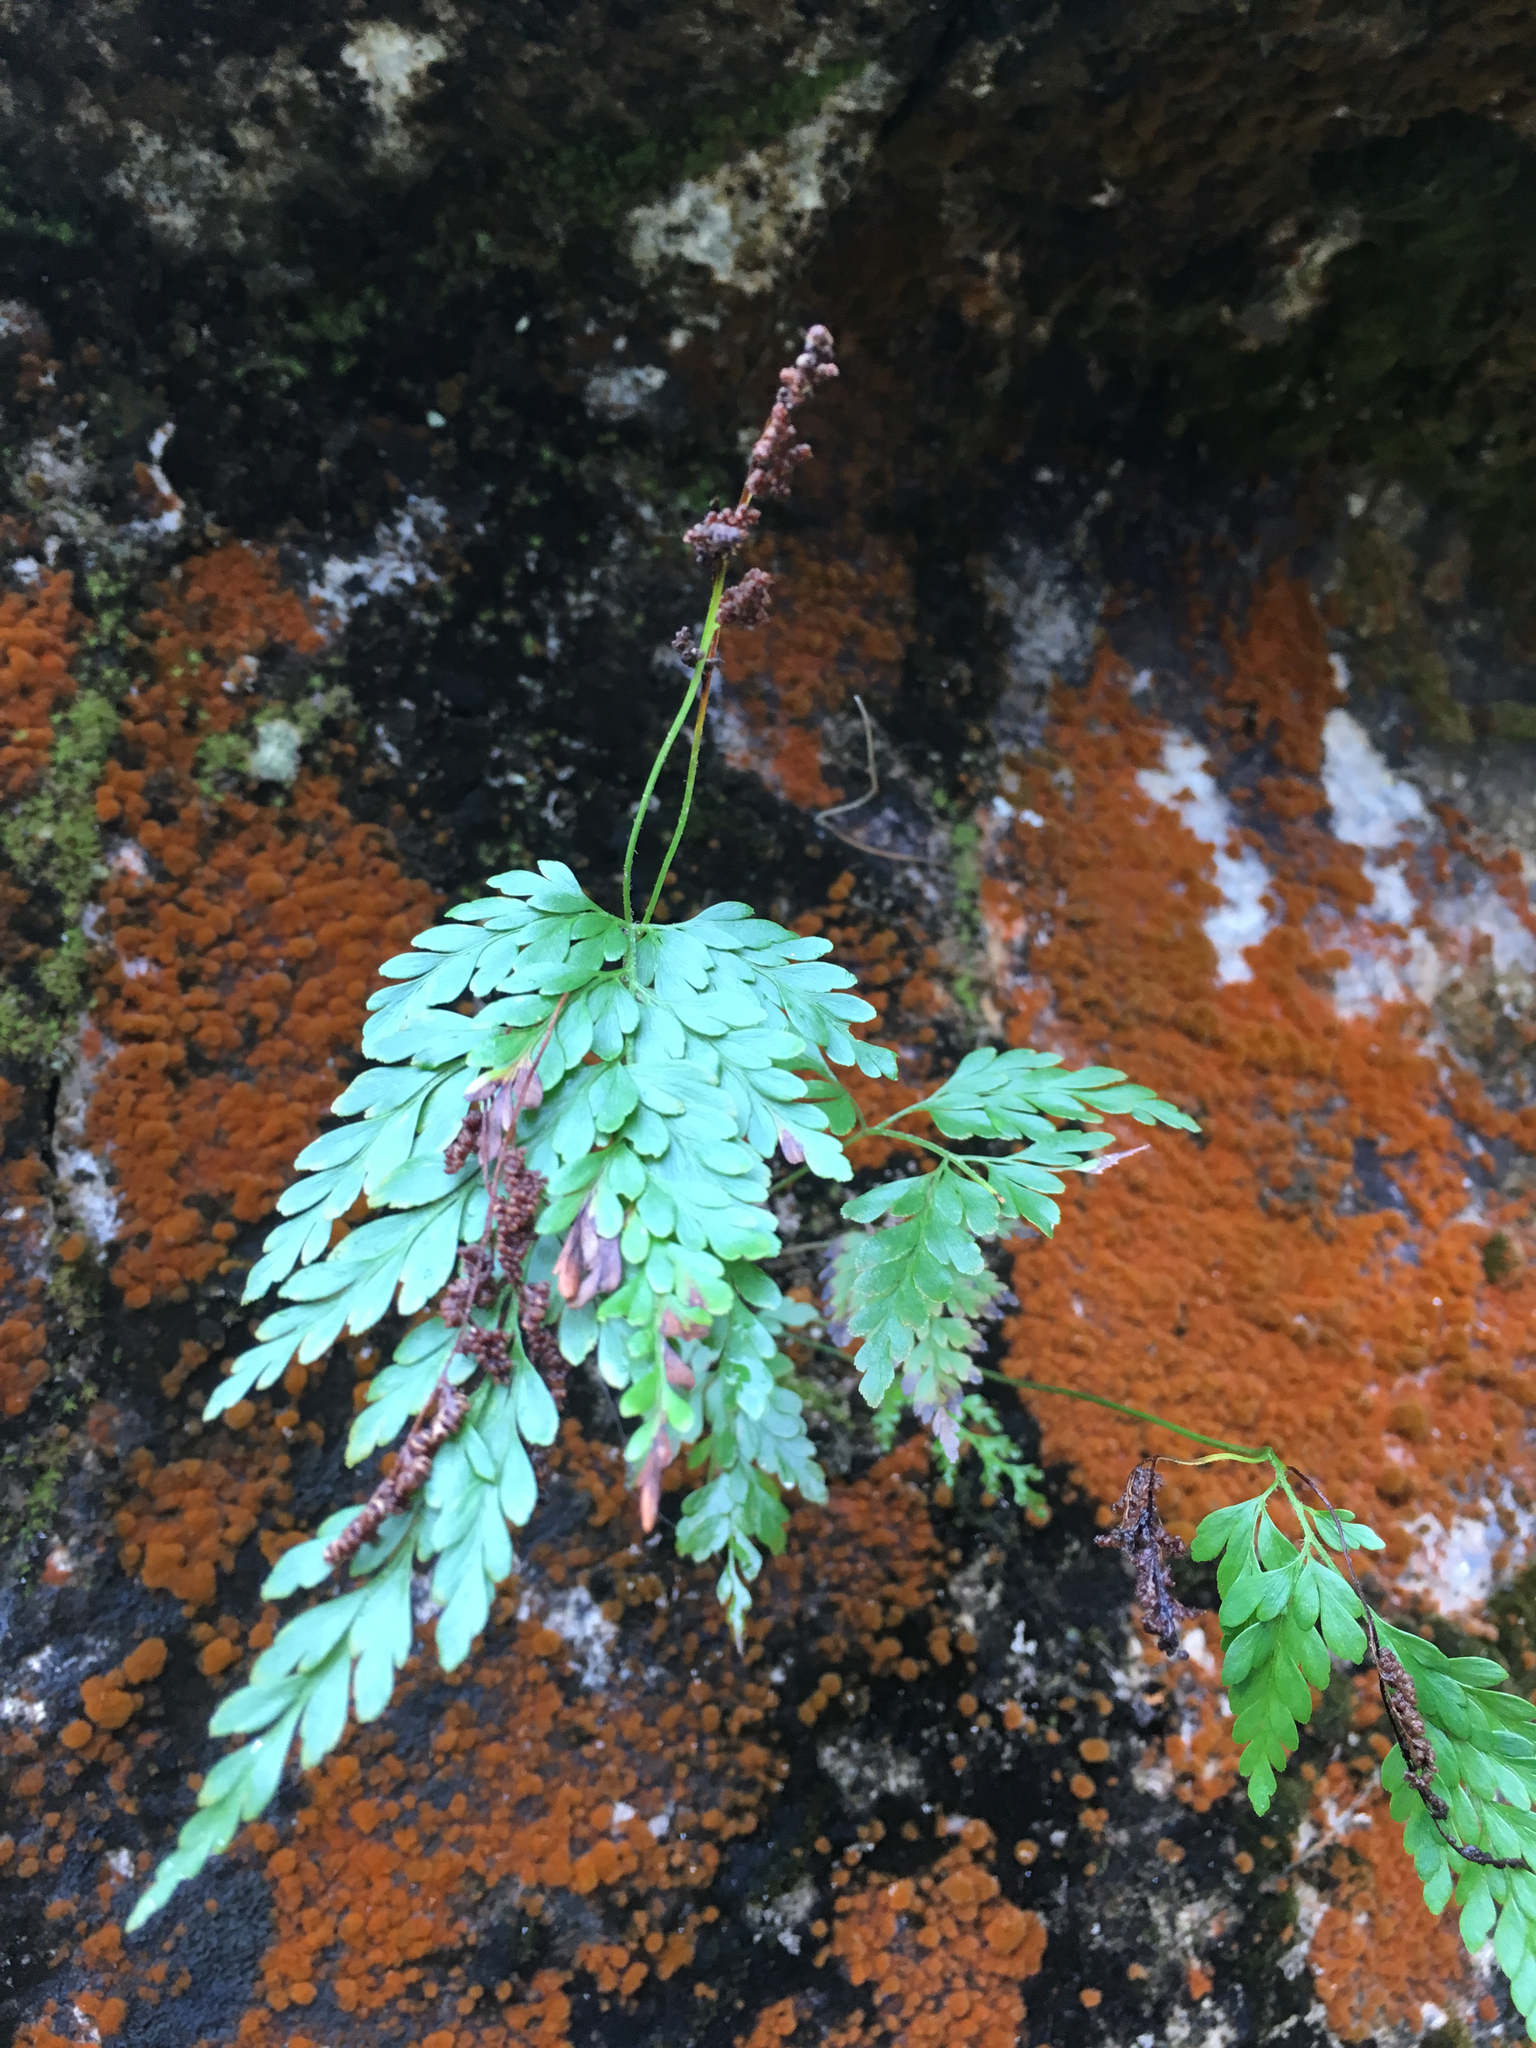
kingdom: Plantae
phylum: Tracheophyta
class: Polypodiopsida
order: Schizaeales
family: Anemiaceae
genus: Anemia
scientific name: Anemia adiantifolia
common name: Pine fern
